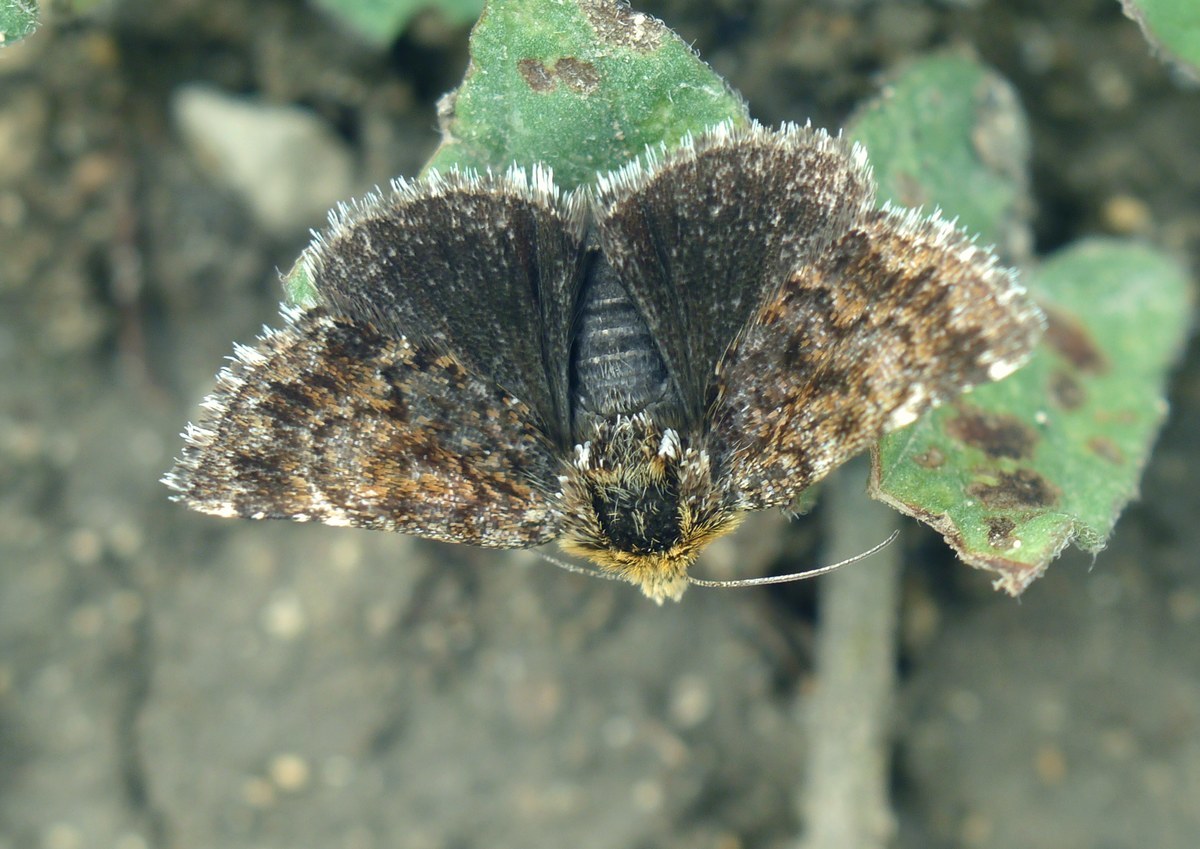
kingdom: Animalia
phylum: Arthropoda
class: Insecta
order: Lepidoptera
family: Noctuidae
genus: Apaustis
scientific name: Apaustis rupicola
